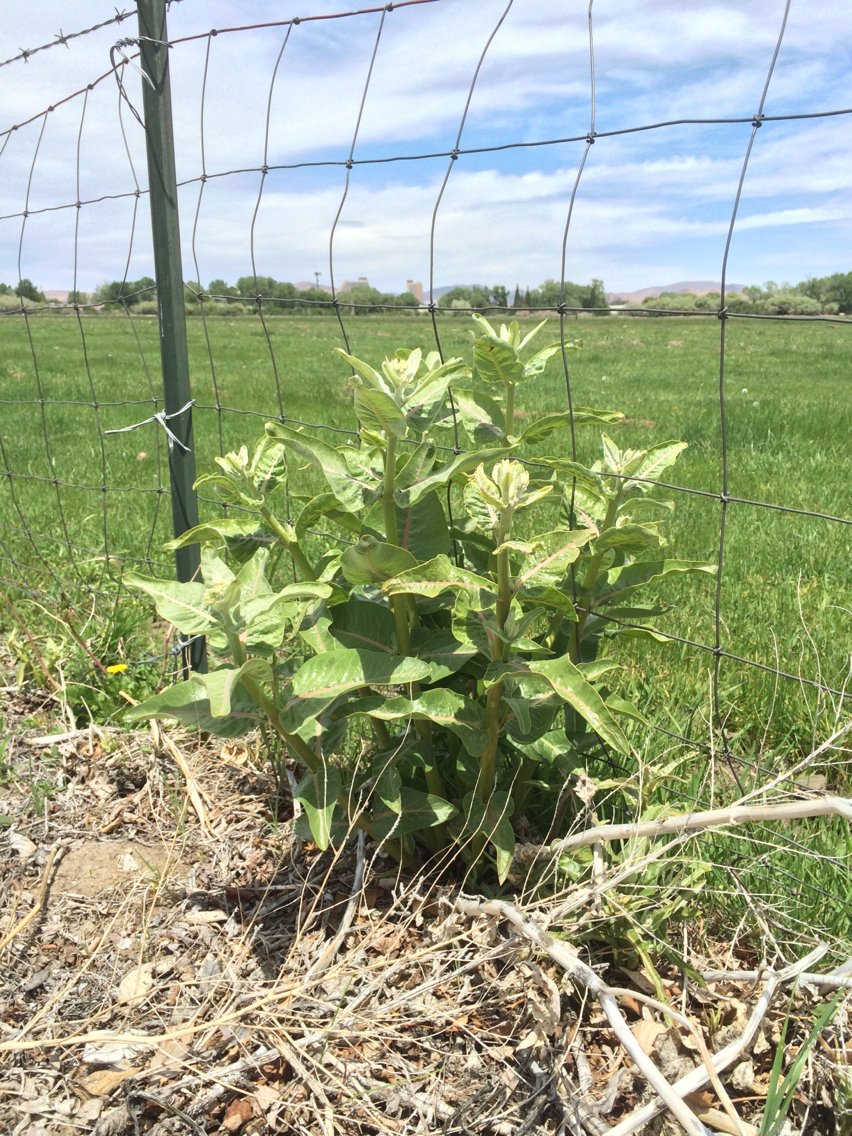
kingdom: Plantae
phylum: Tracheophyta
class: Magnoliopsida
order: Gentianales
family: Apocynaceae
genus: Asclepias
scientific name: Asclepias speciosa
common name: Showy milkweed
